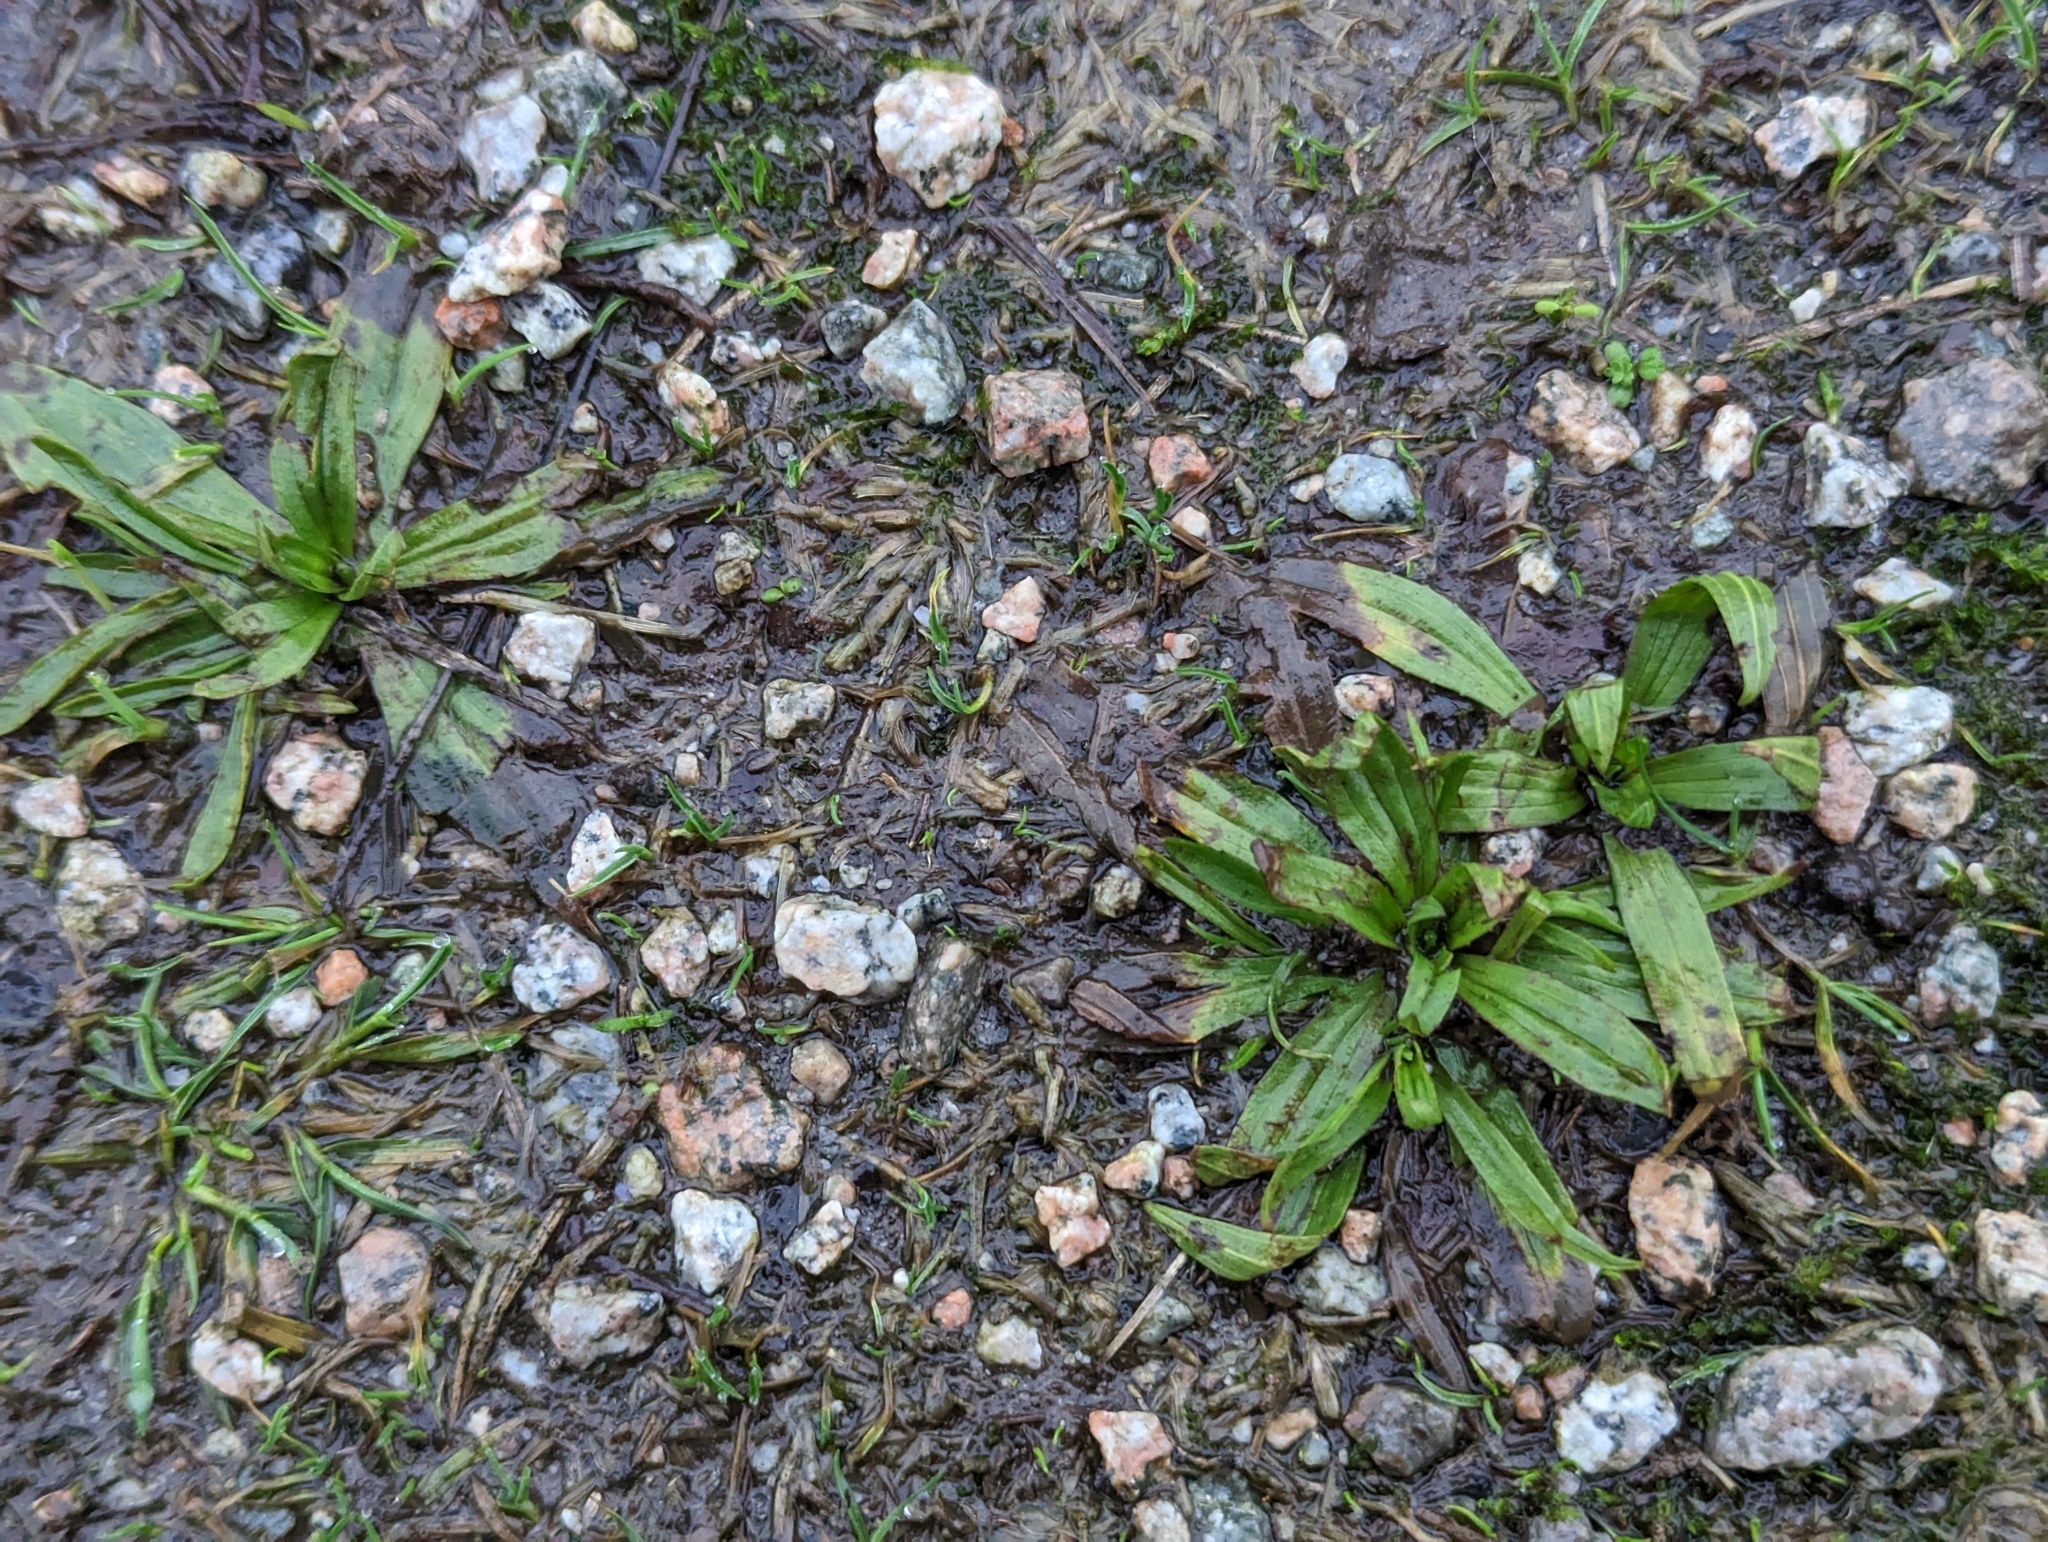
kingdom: Plantae
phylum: Tracheophyta
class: Magnoliopsida
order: Lamiales
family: Plantaginaceae
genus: Plantago
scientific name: Plantago lanceolata
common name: Ribwort plantain
